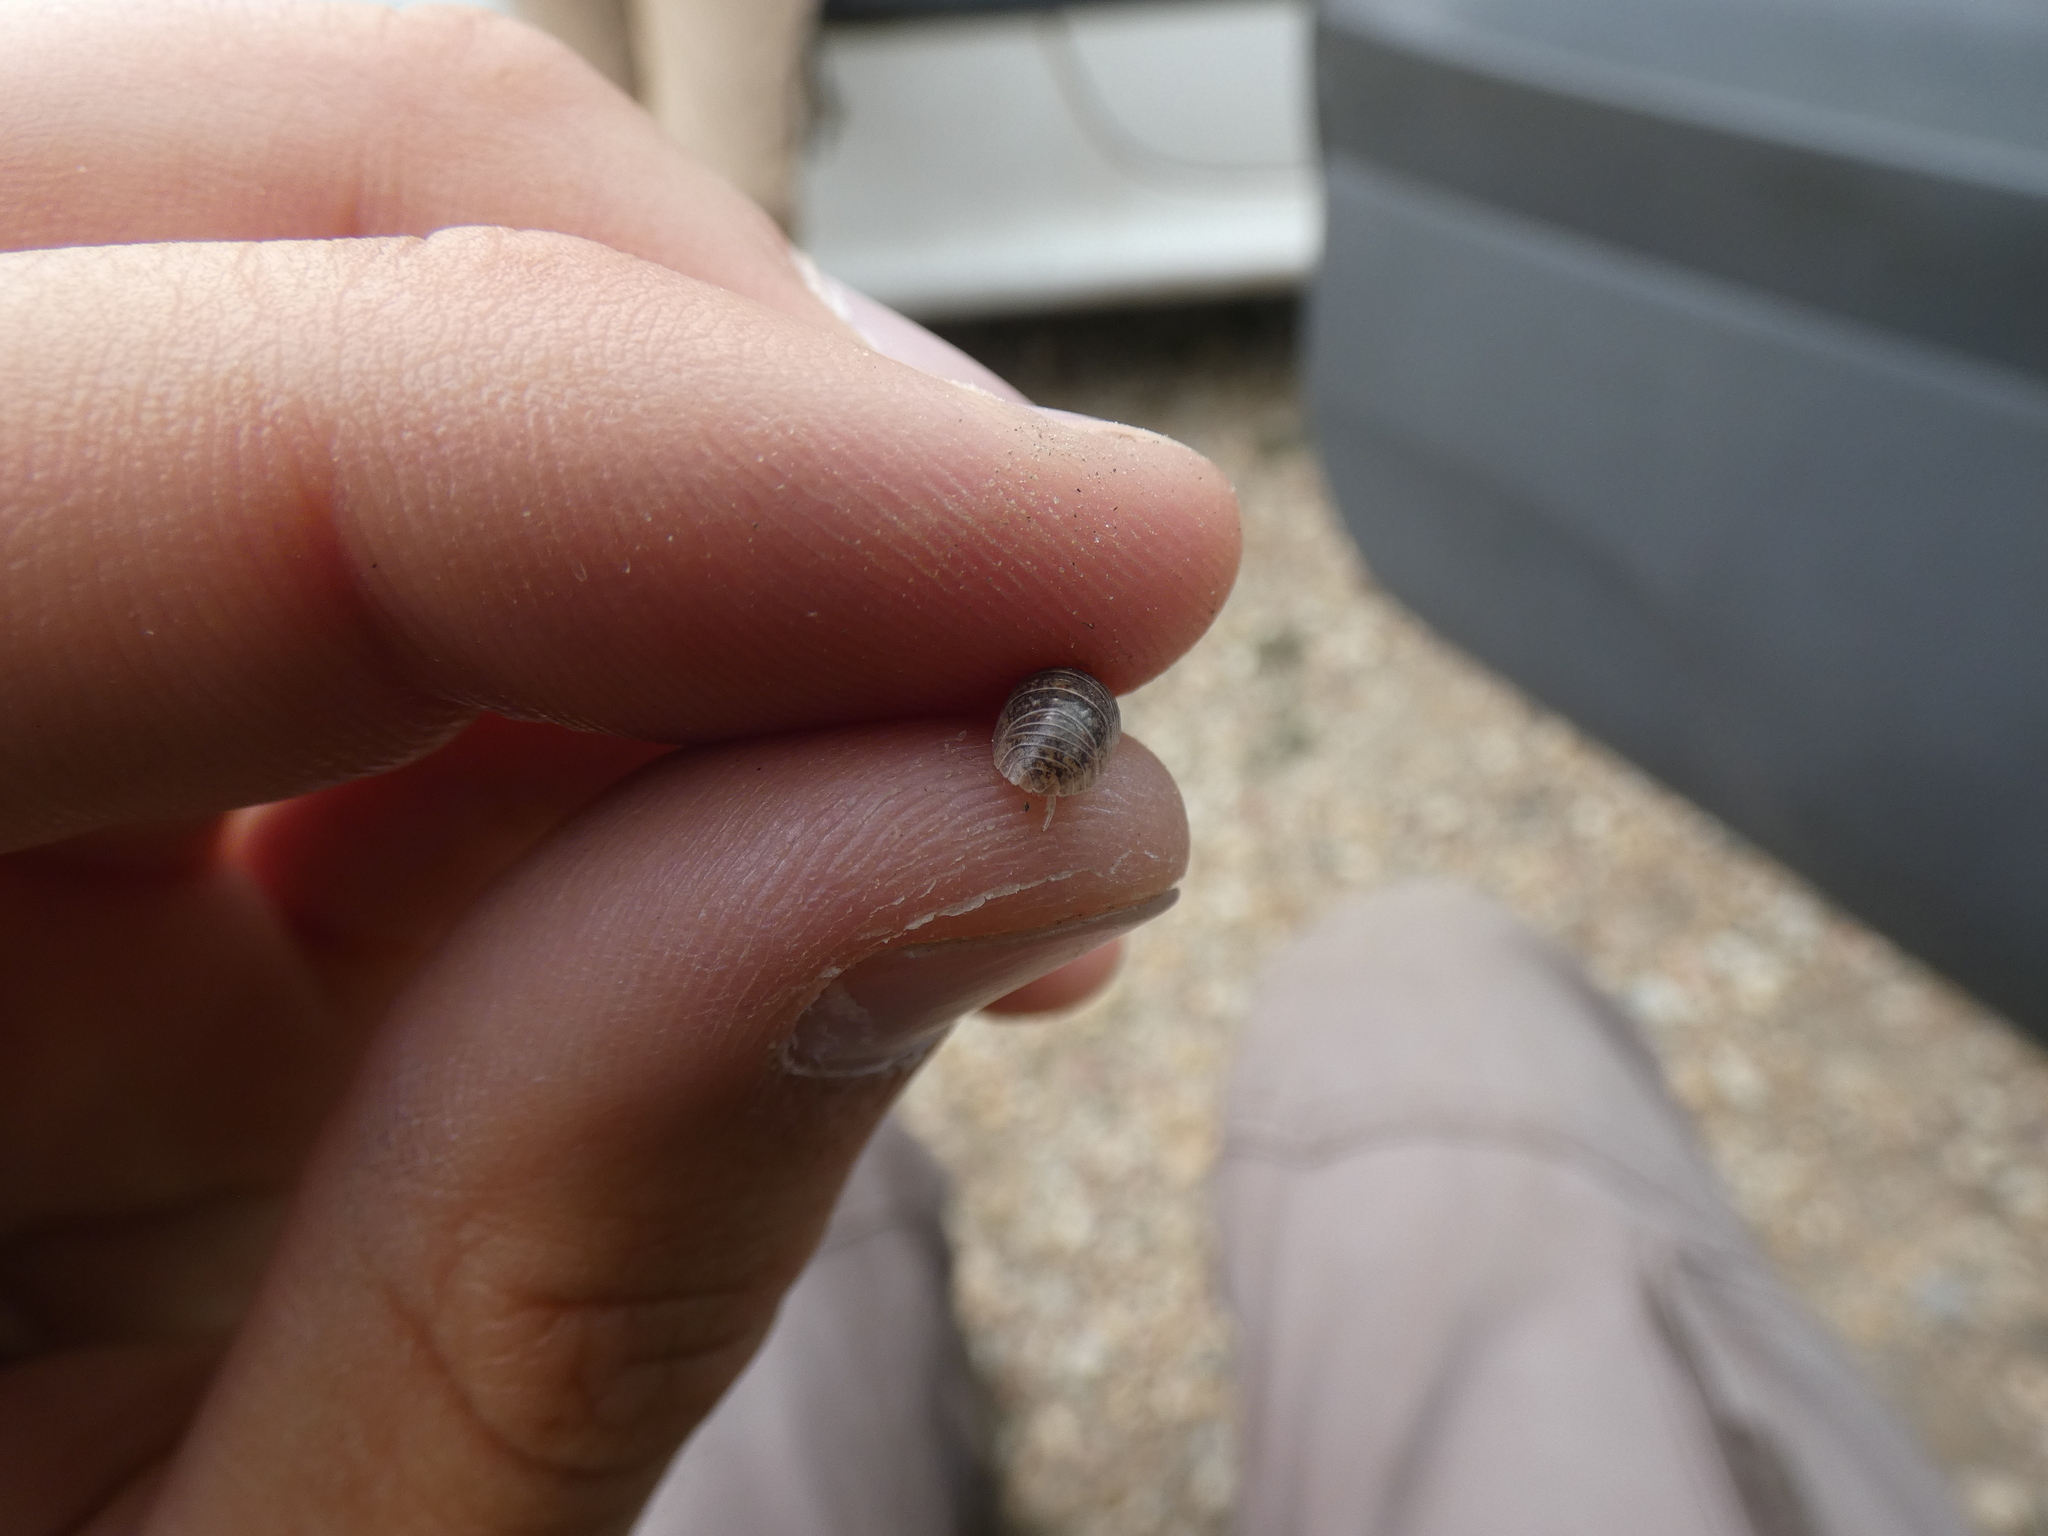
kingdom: Animalia
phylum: Arthropoda
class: Malacostraca
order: Isopoda
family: Armadillidiidae
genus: Armadillidium
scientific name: Armadillidium arcangelii
